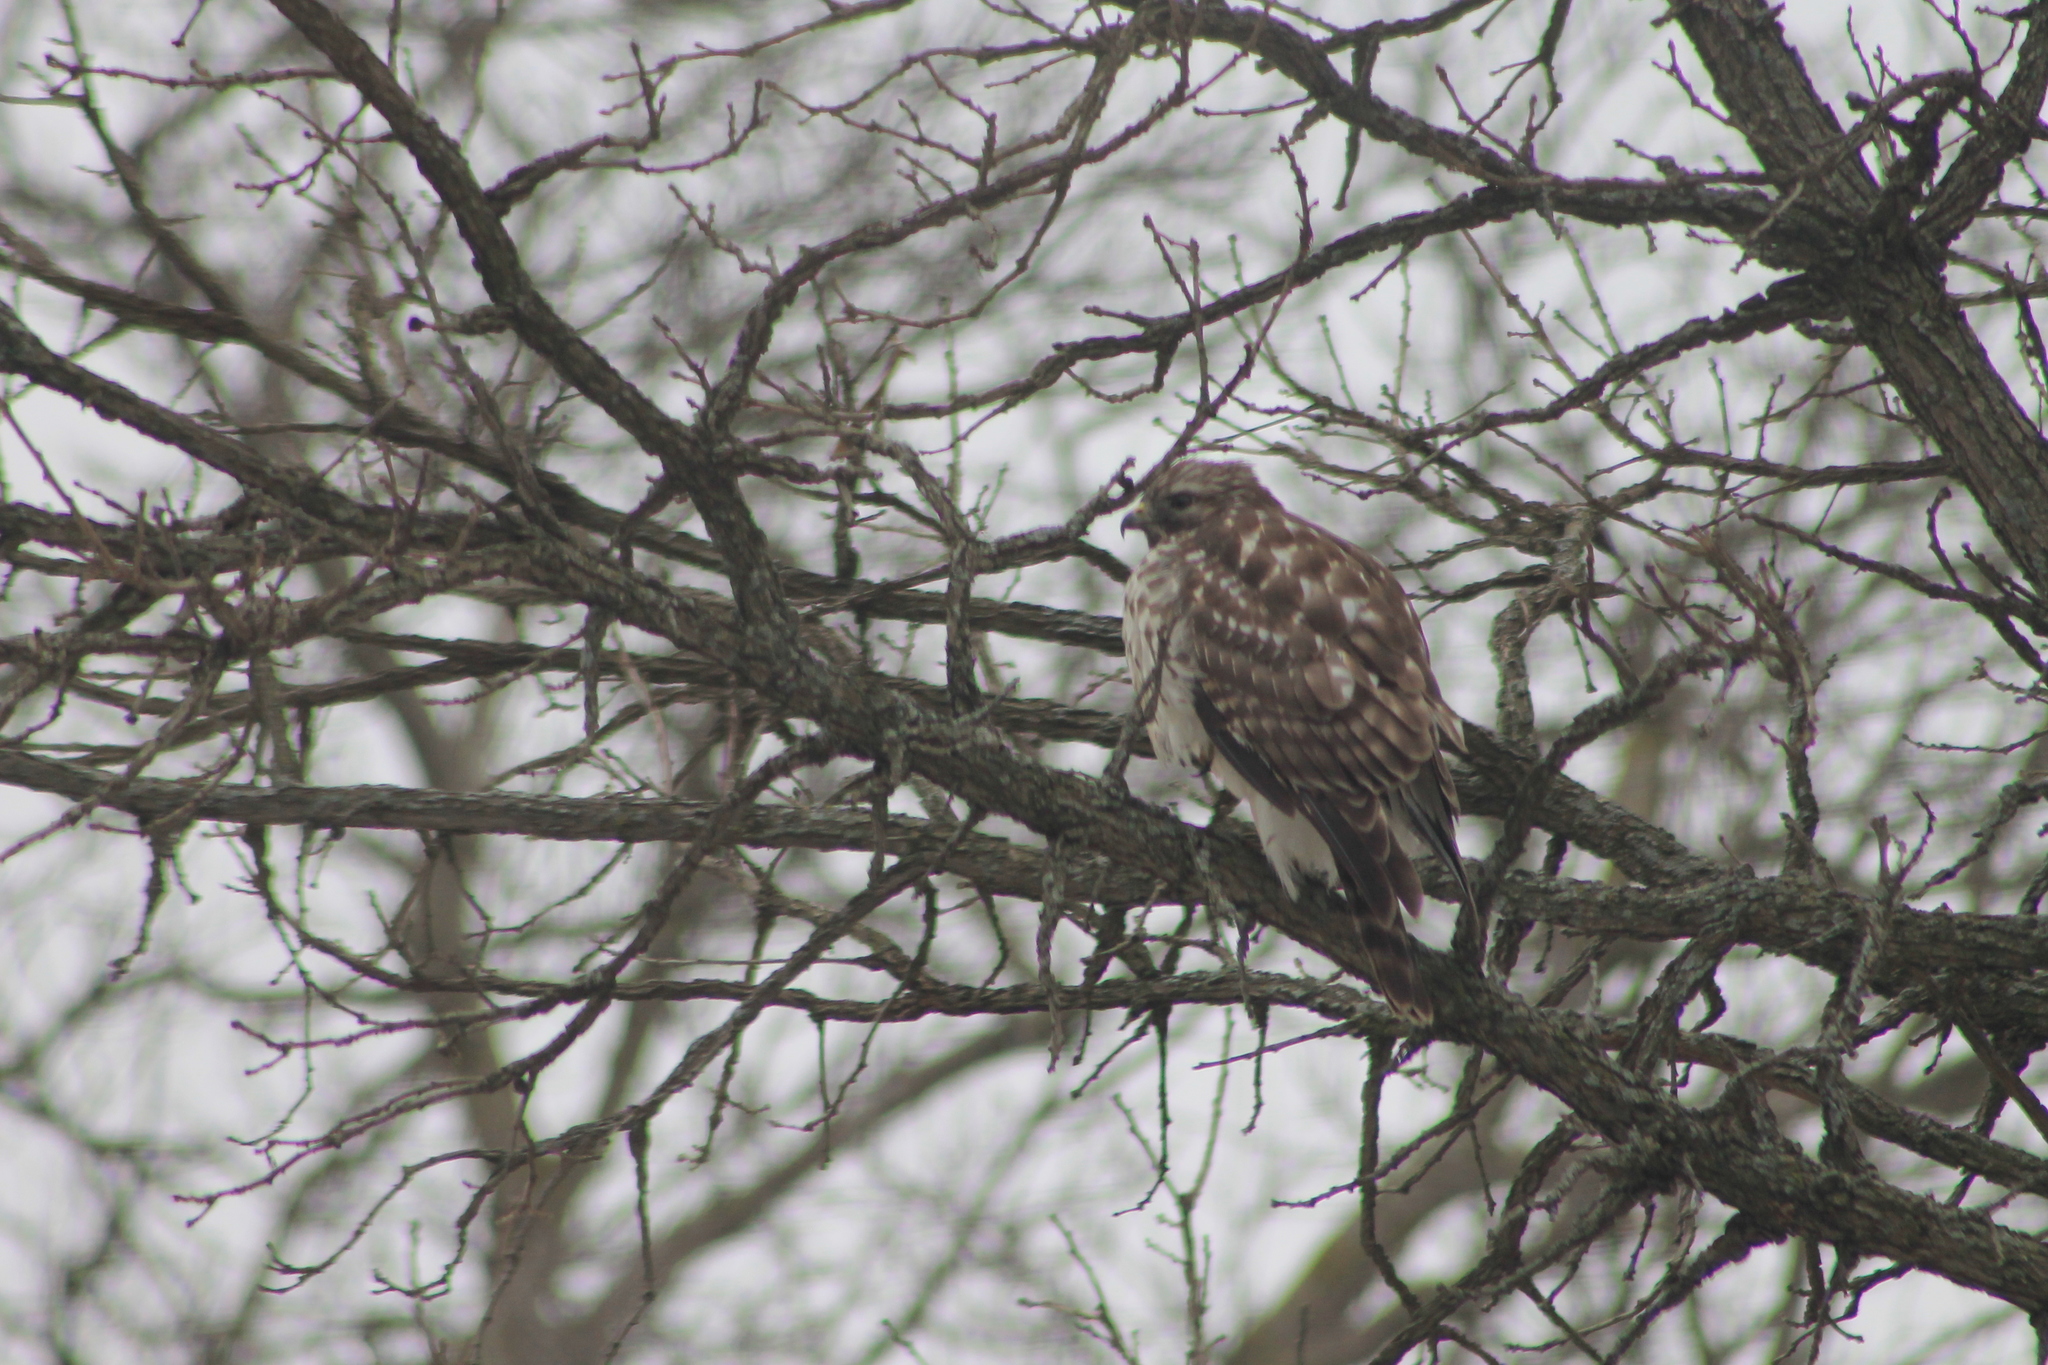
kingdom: Animalia
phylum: Chordata
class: Aves
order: Accipitriformes
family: Accipitridae
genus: Buteo
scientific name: Buteo lineatus
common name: Red-shouldered hawk
